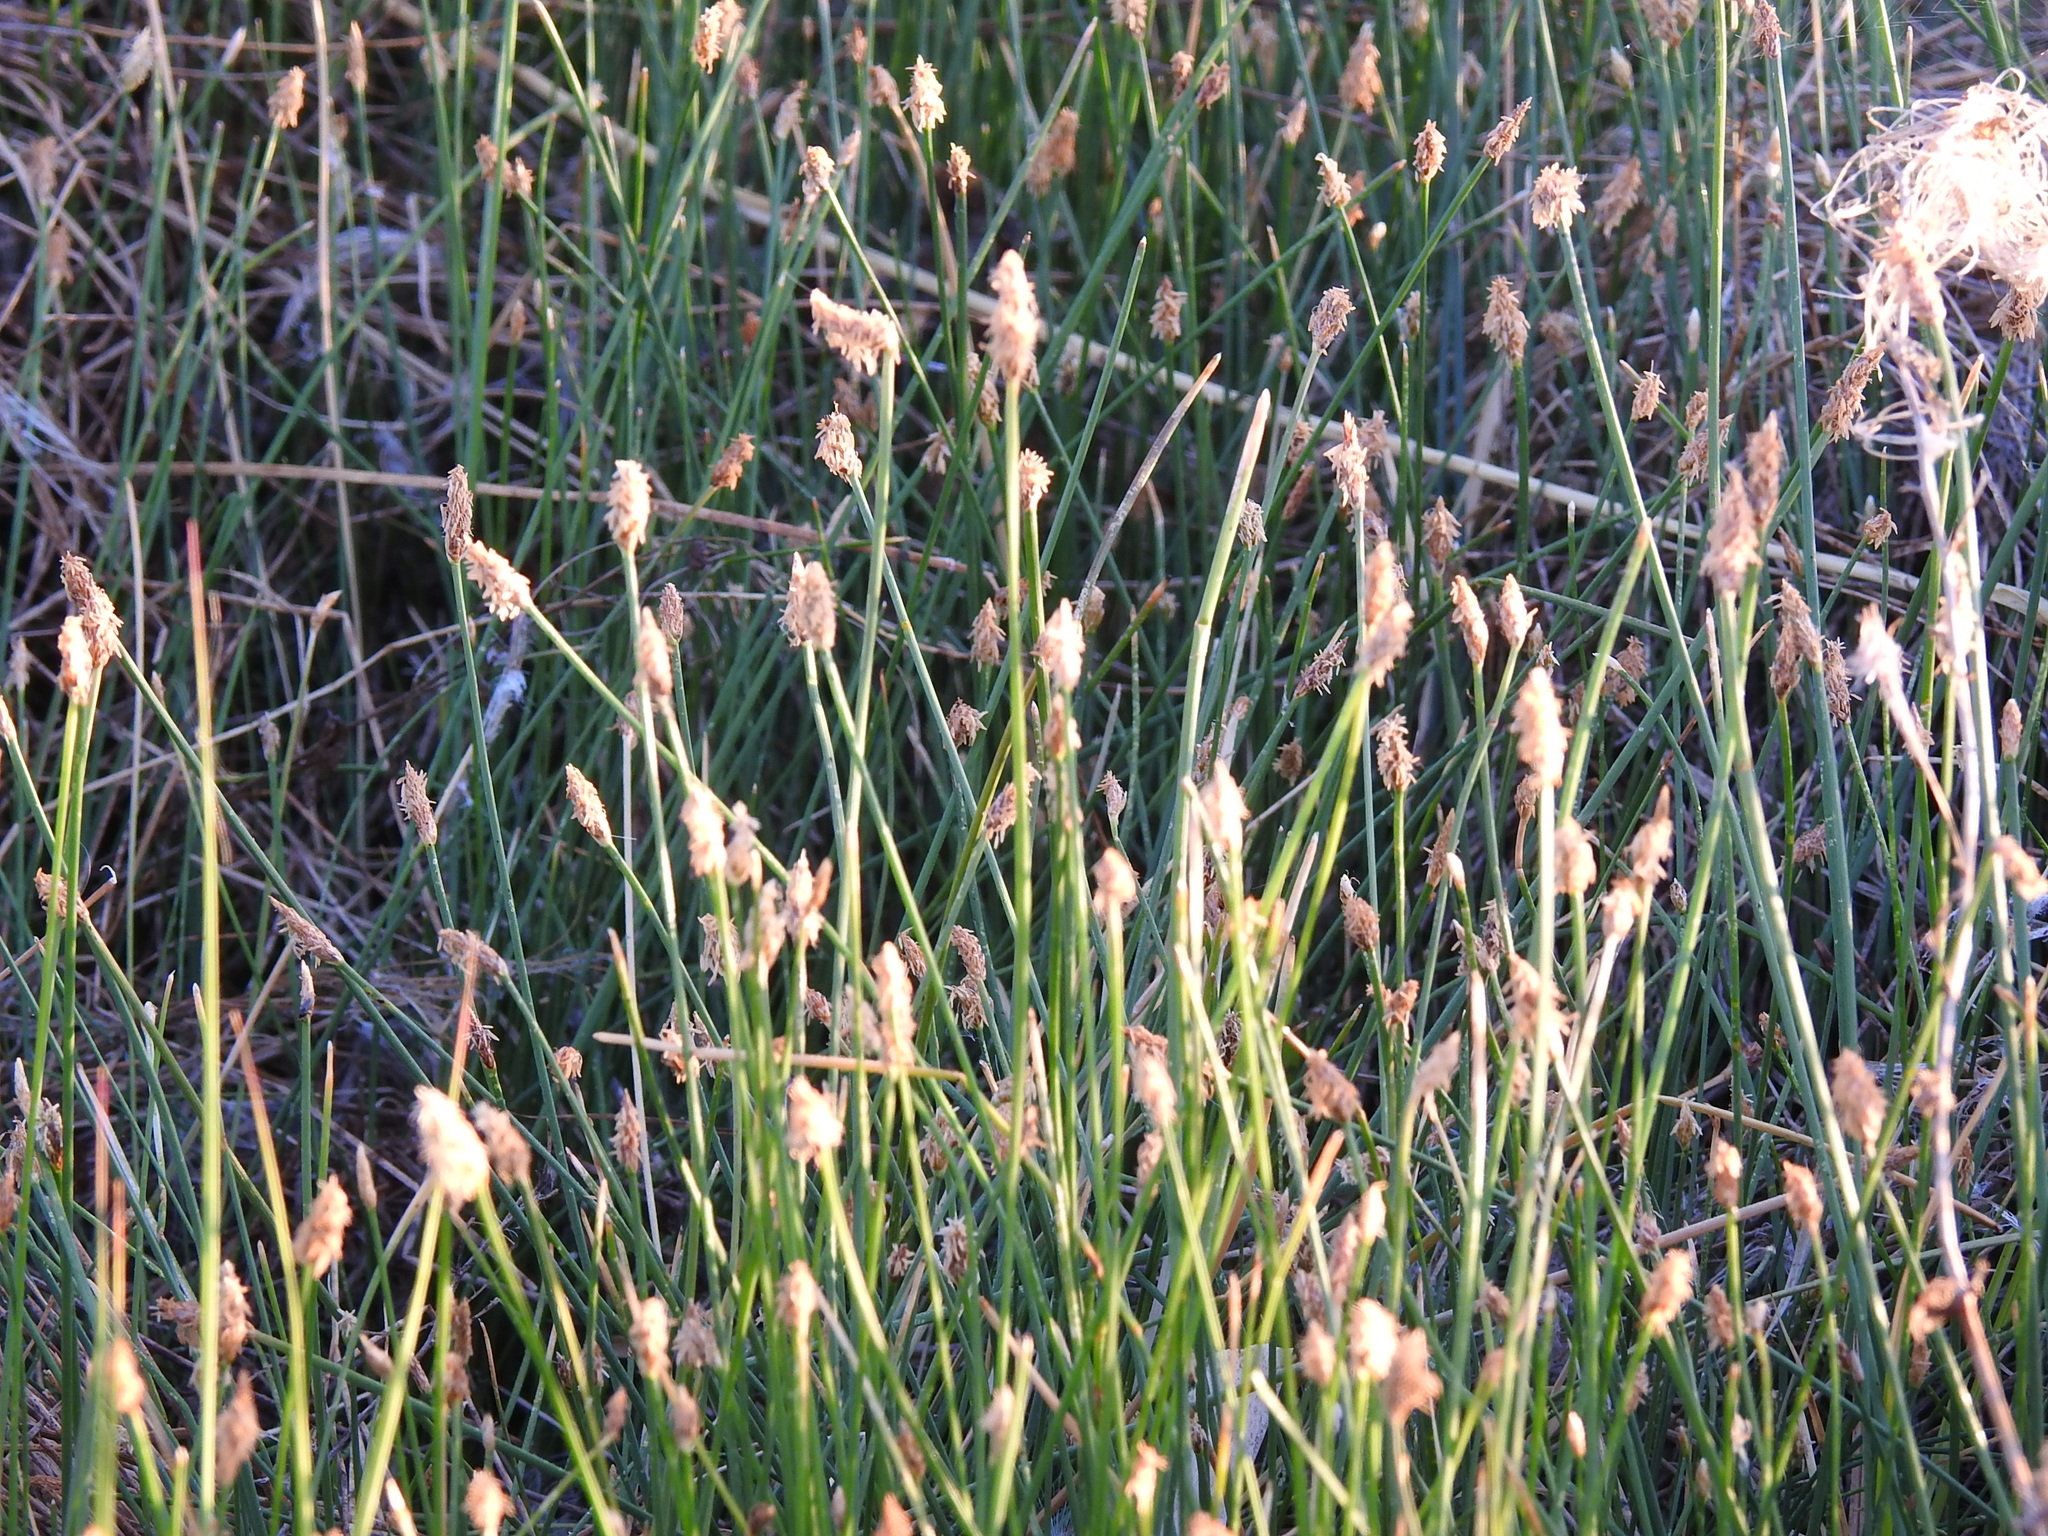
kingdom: Plantae
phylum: Tracheophyta
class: Liliopsida
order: Poales
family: Cyperaceae
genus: Eleocharis
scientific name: Eleocharis palustris
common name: Common spike-rush
